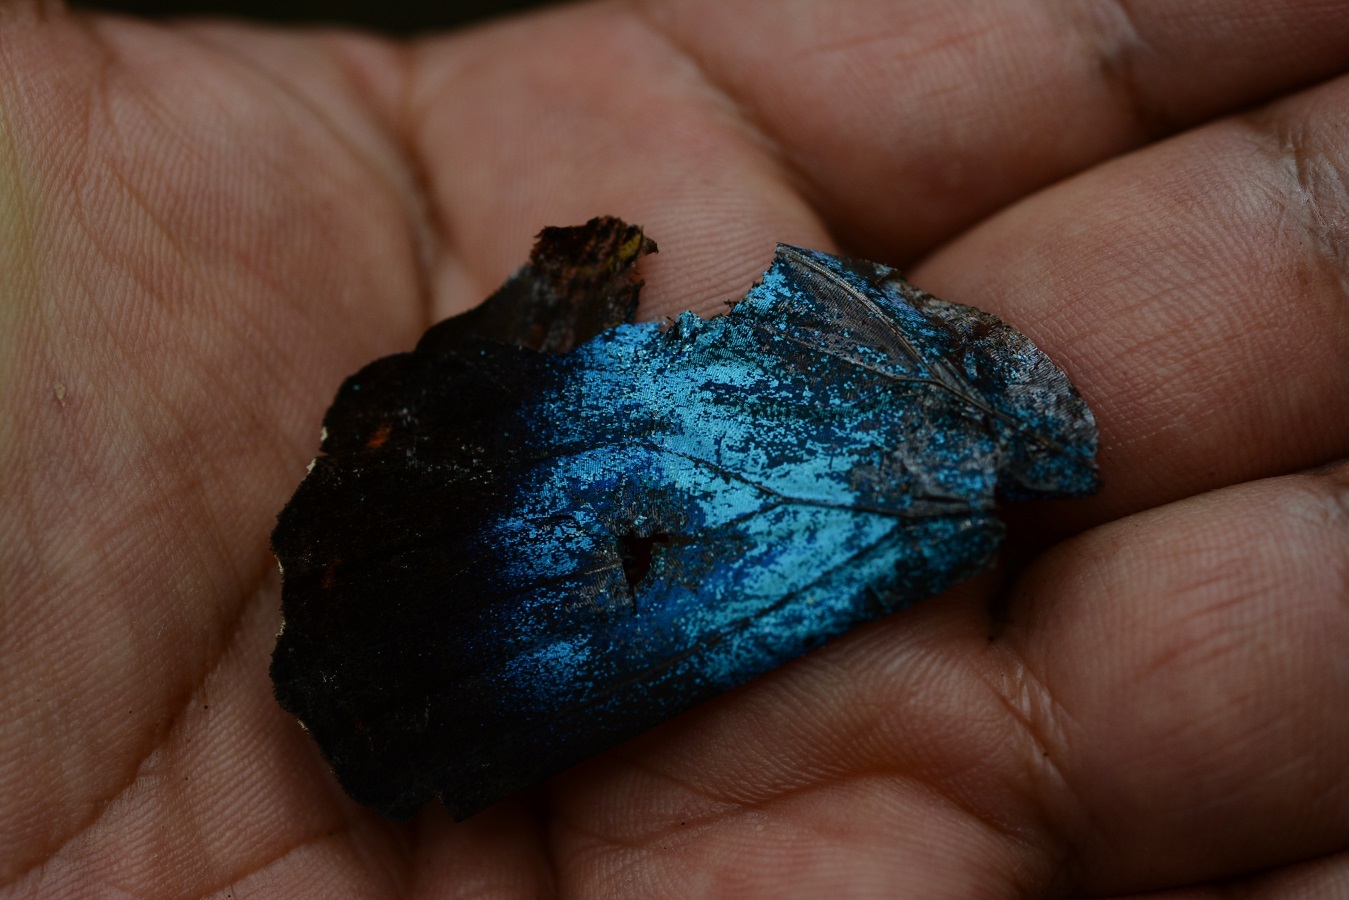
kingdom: Animalia
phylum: Arthropoda
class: Insecta
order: Lepidoptera
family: Nymphalidae
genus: Morpho
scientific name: Morpho helenor
